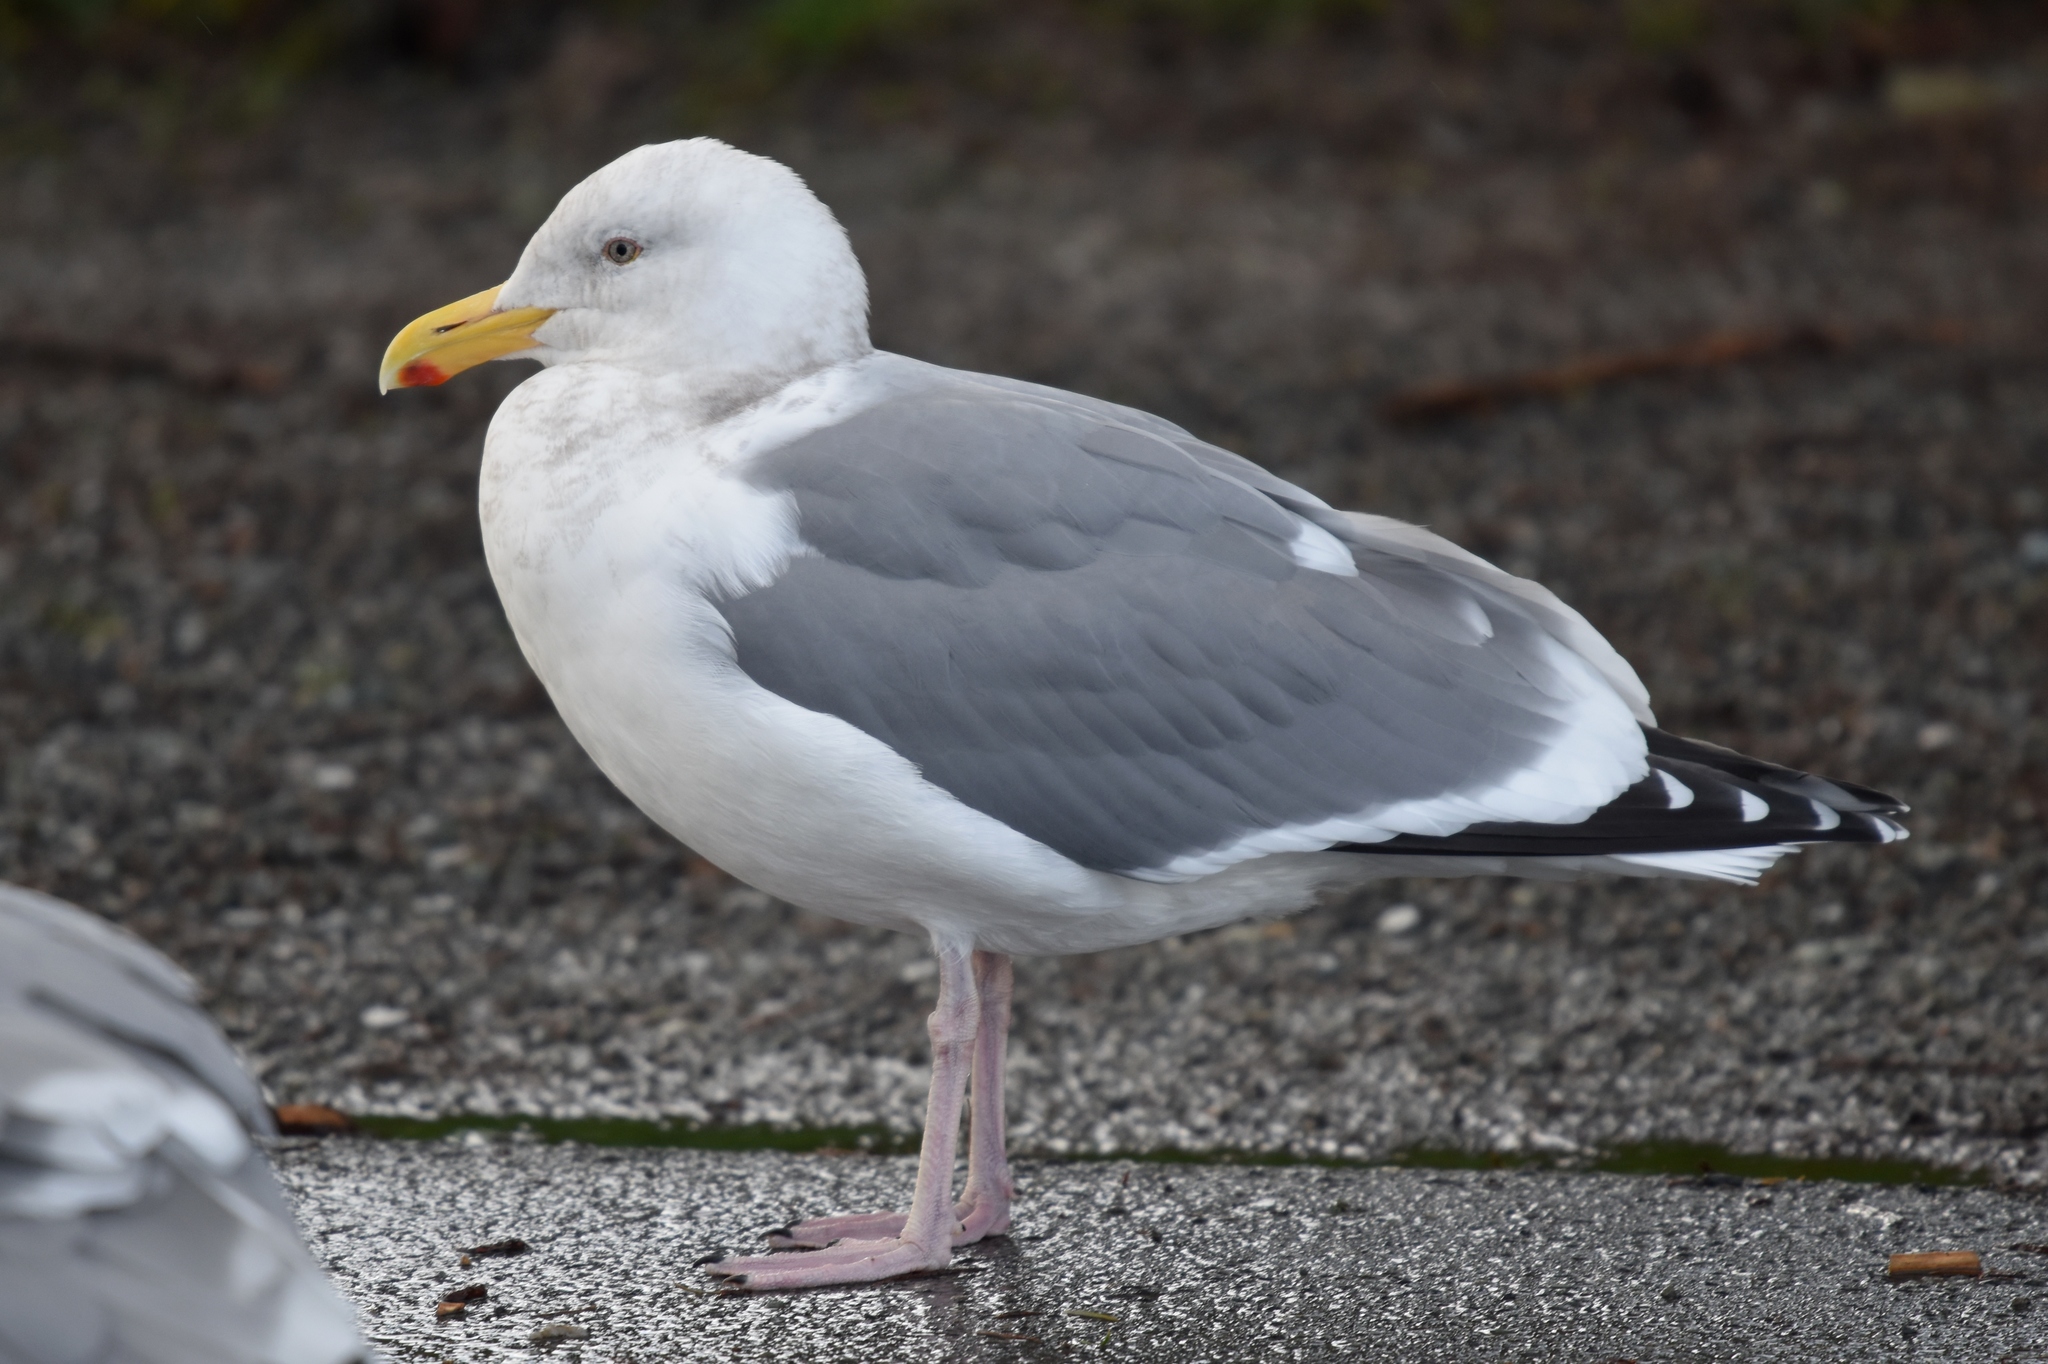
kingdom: Animalia
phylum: Chordata
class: Aves
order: Charadriiformes
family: Laridae
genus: Larus
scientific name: Larus occidentalis
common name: Western gull
